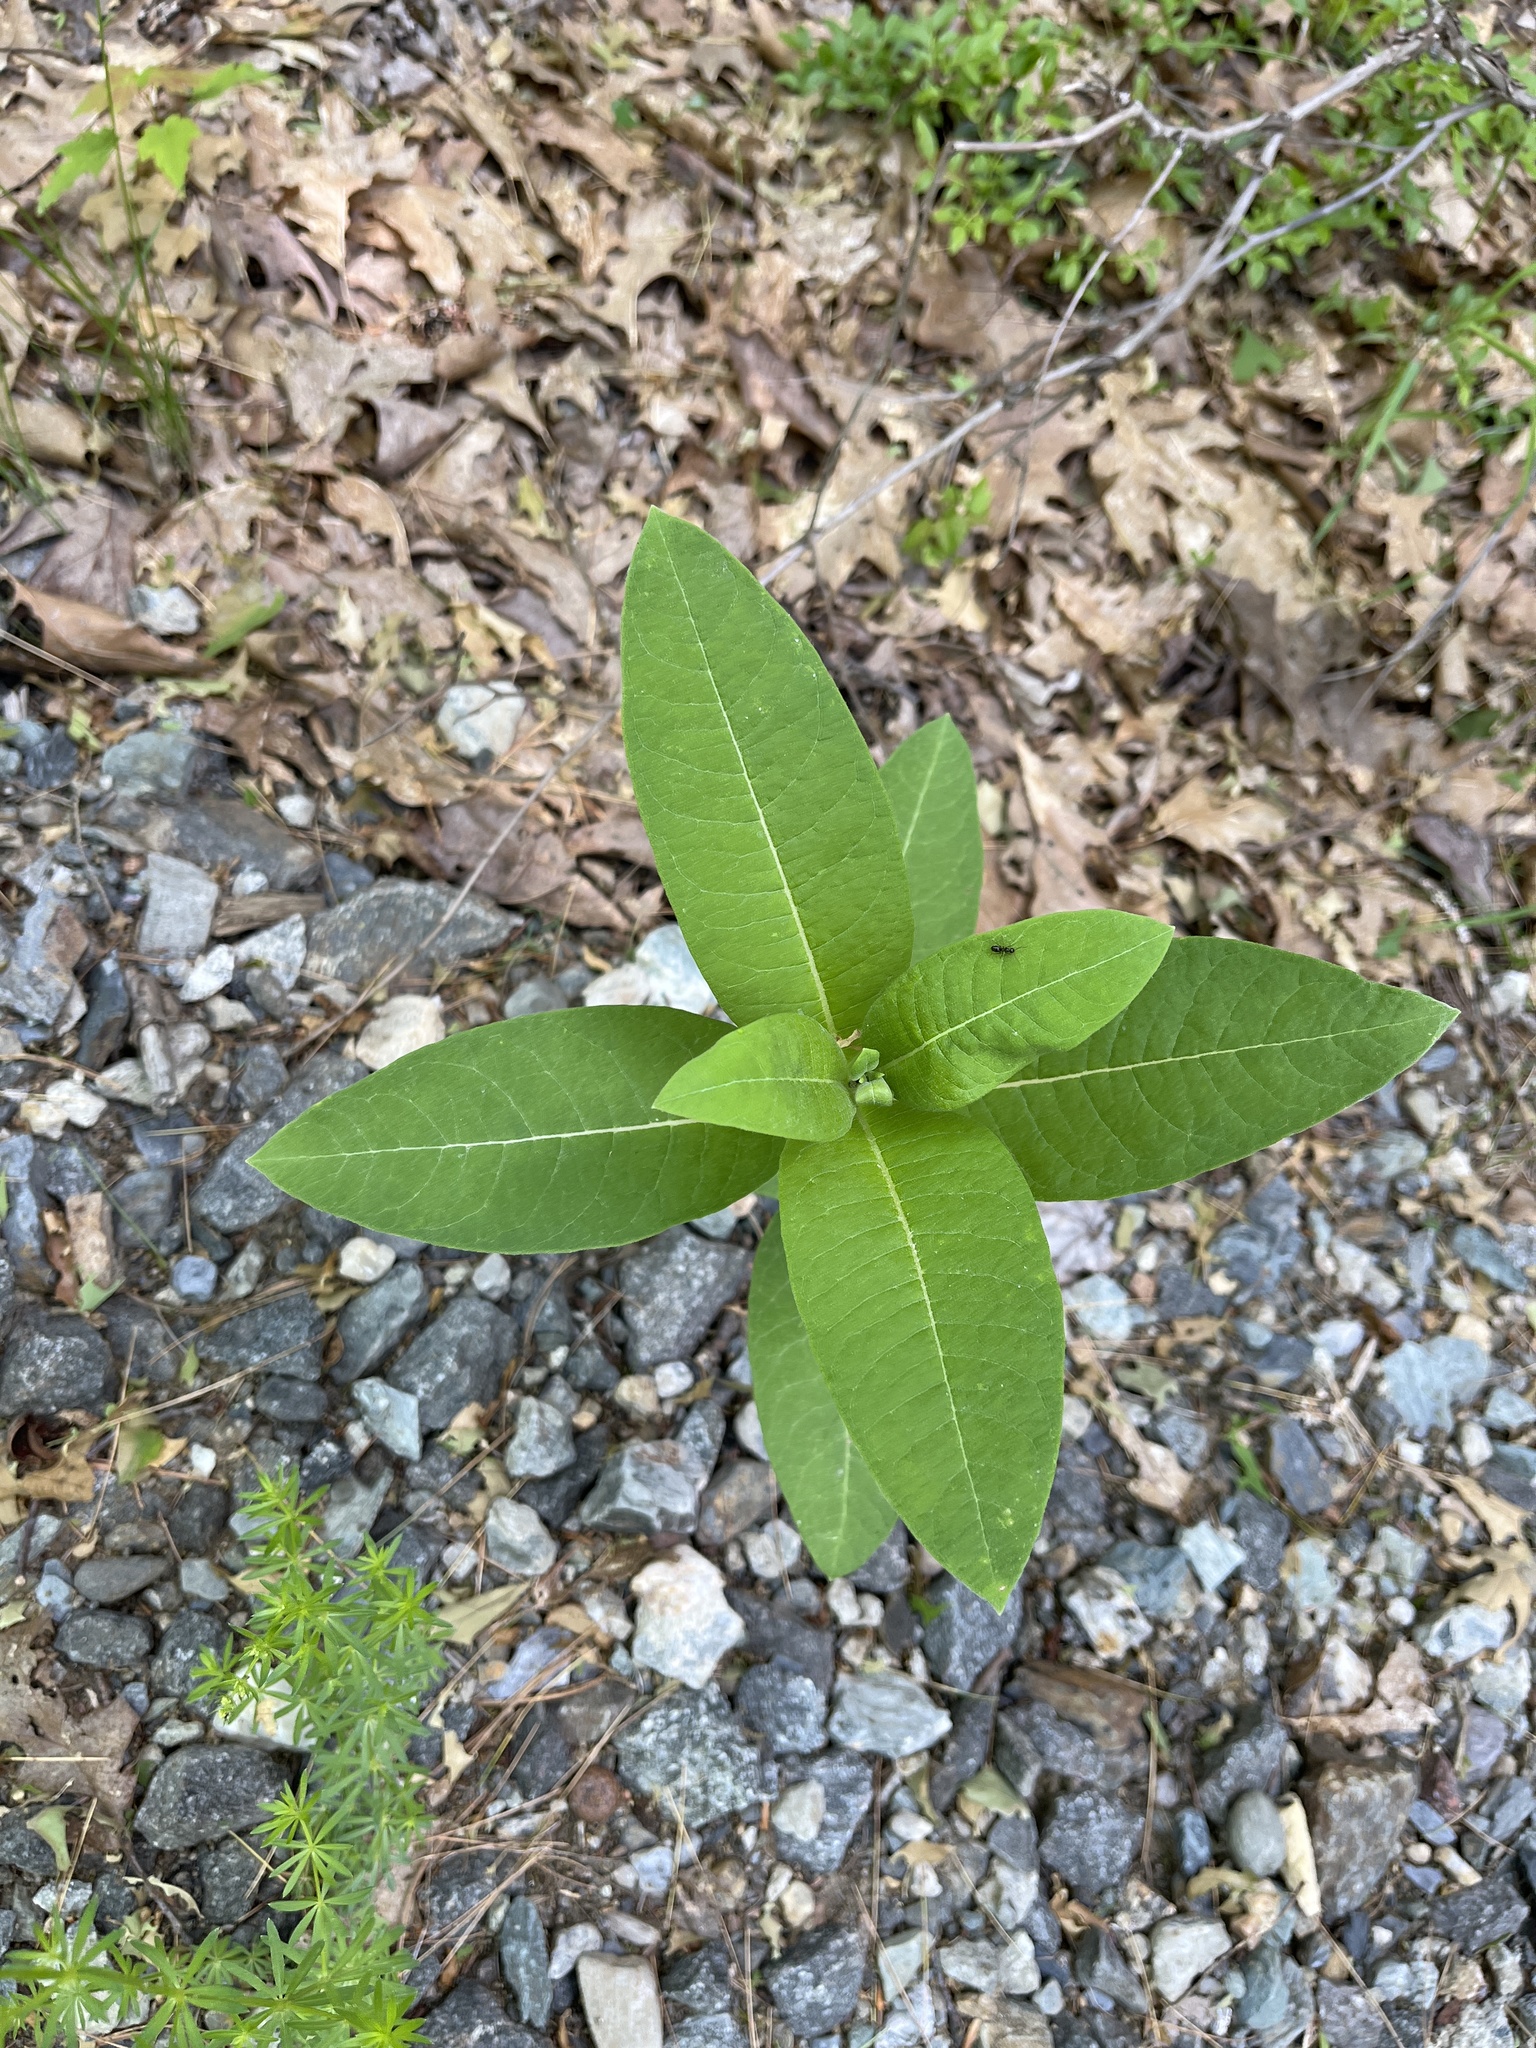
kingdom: Plantae
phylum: Tracheophyta
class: Magnoliopsida
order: Gentianales
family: Apocynaceae
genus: Asclepias
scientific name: Asclepias syriaca
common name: Common milkweed
